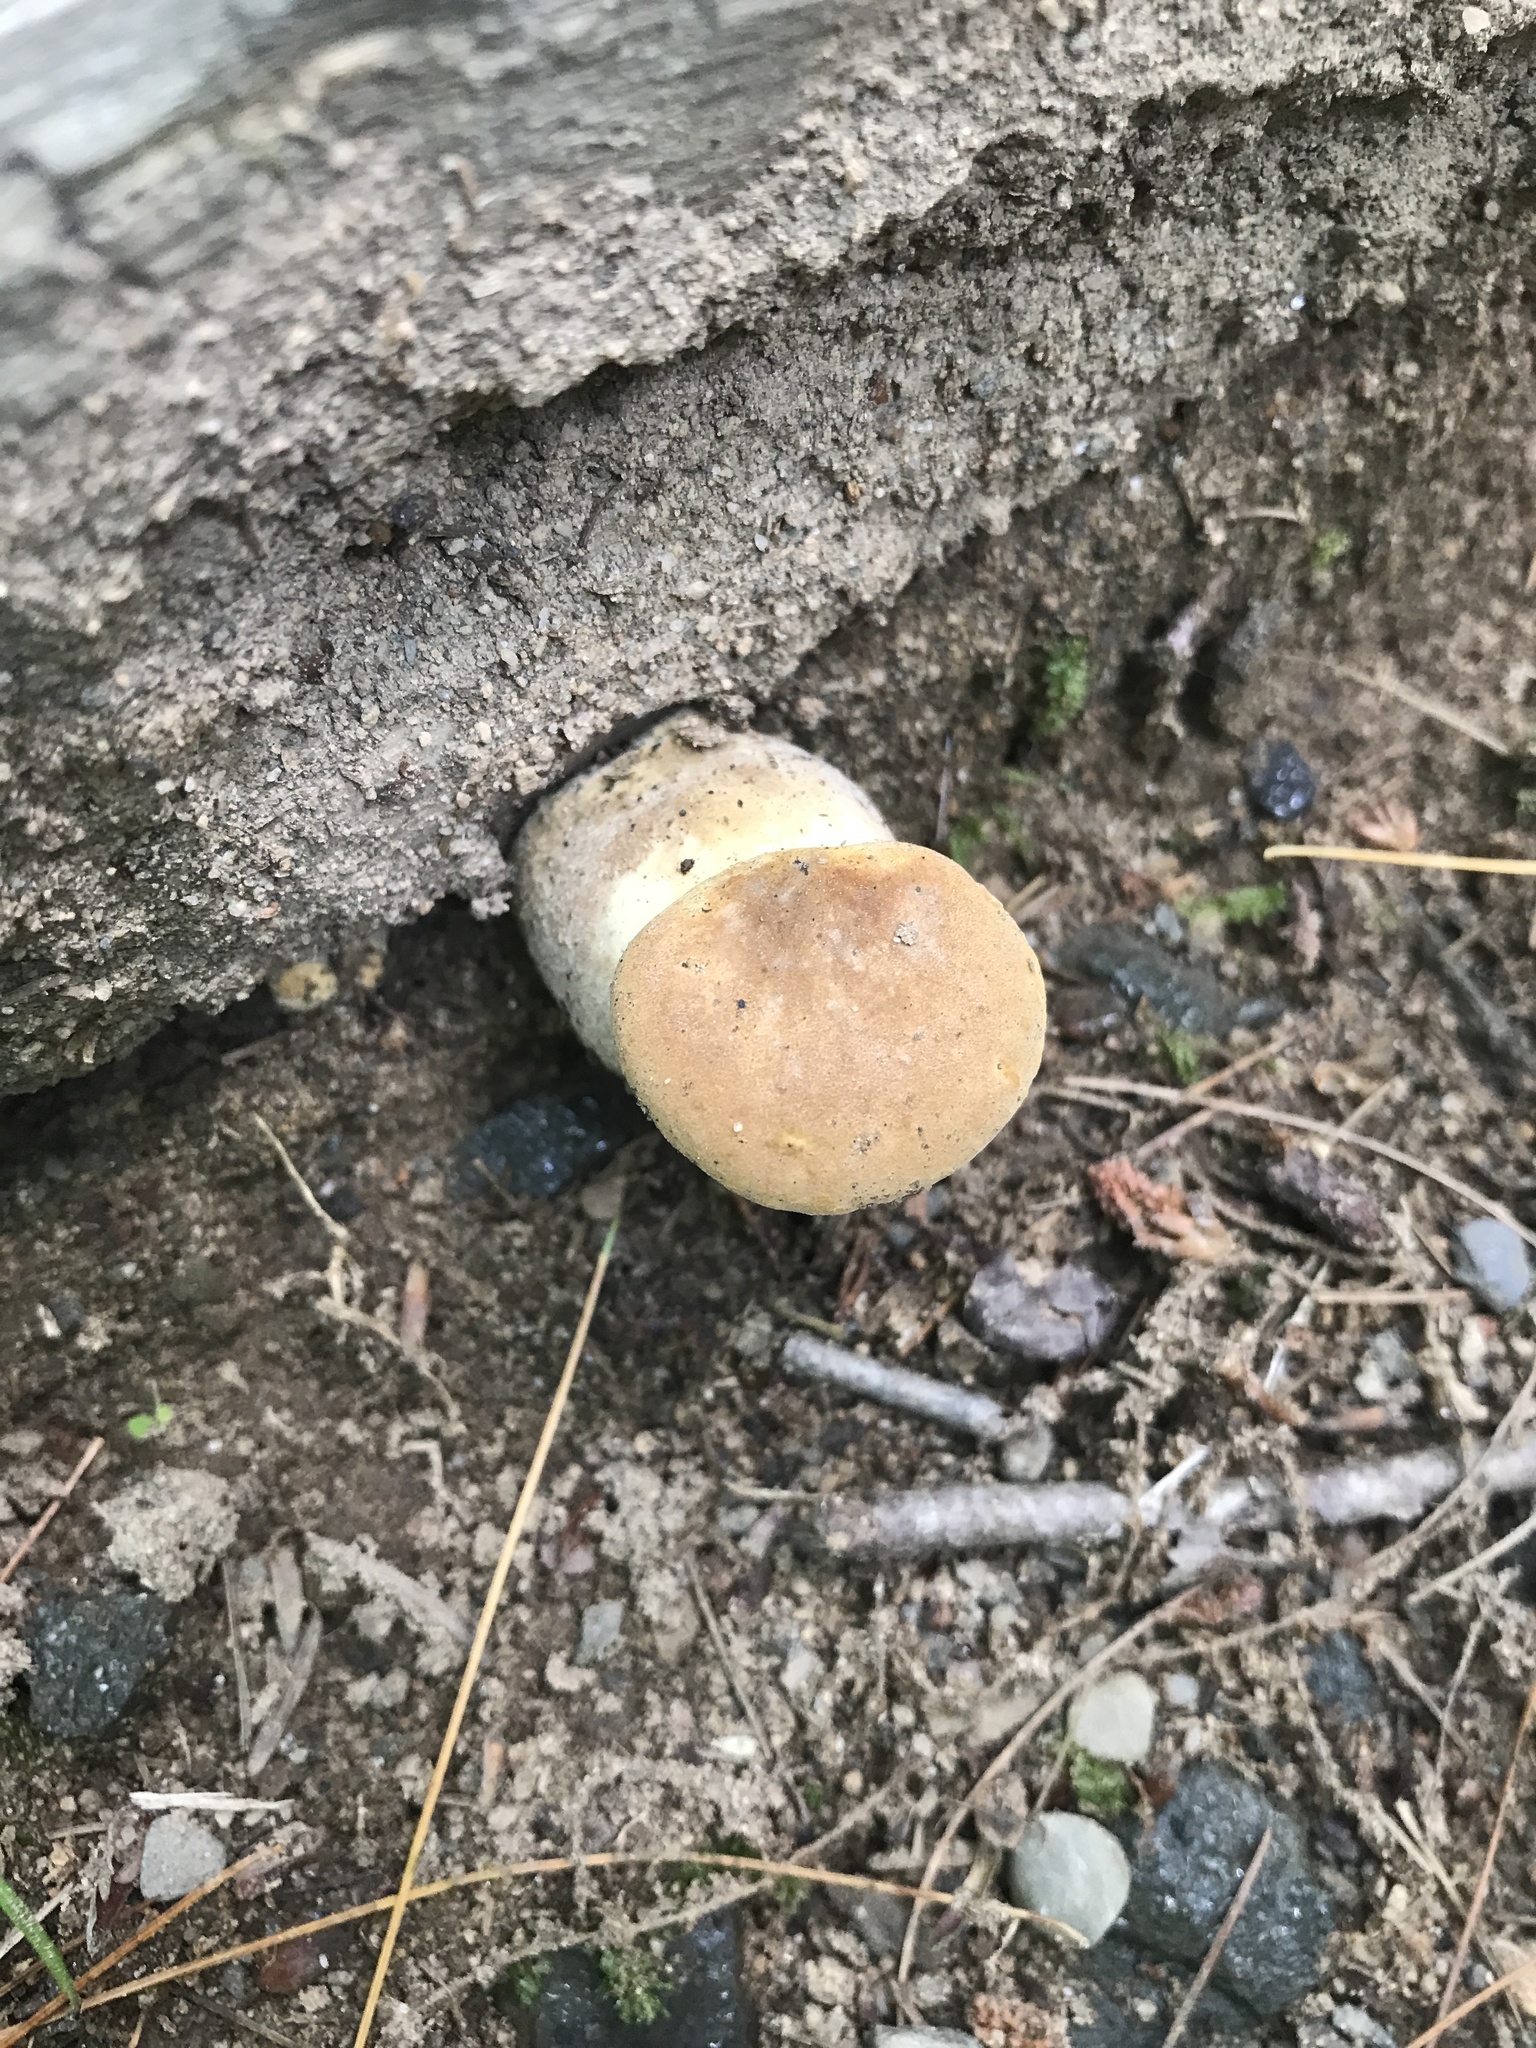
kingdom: Fungi
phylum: Basidiomycota
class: Agaricomycetes
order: Boletales
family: Tapinellaceae
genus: Tapinella
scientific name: Tapinella atrotomentosa
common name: Velvet rollrim
